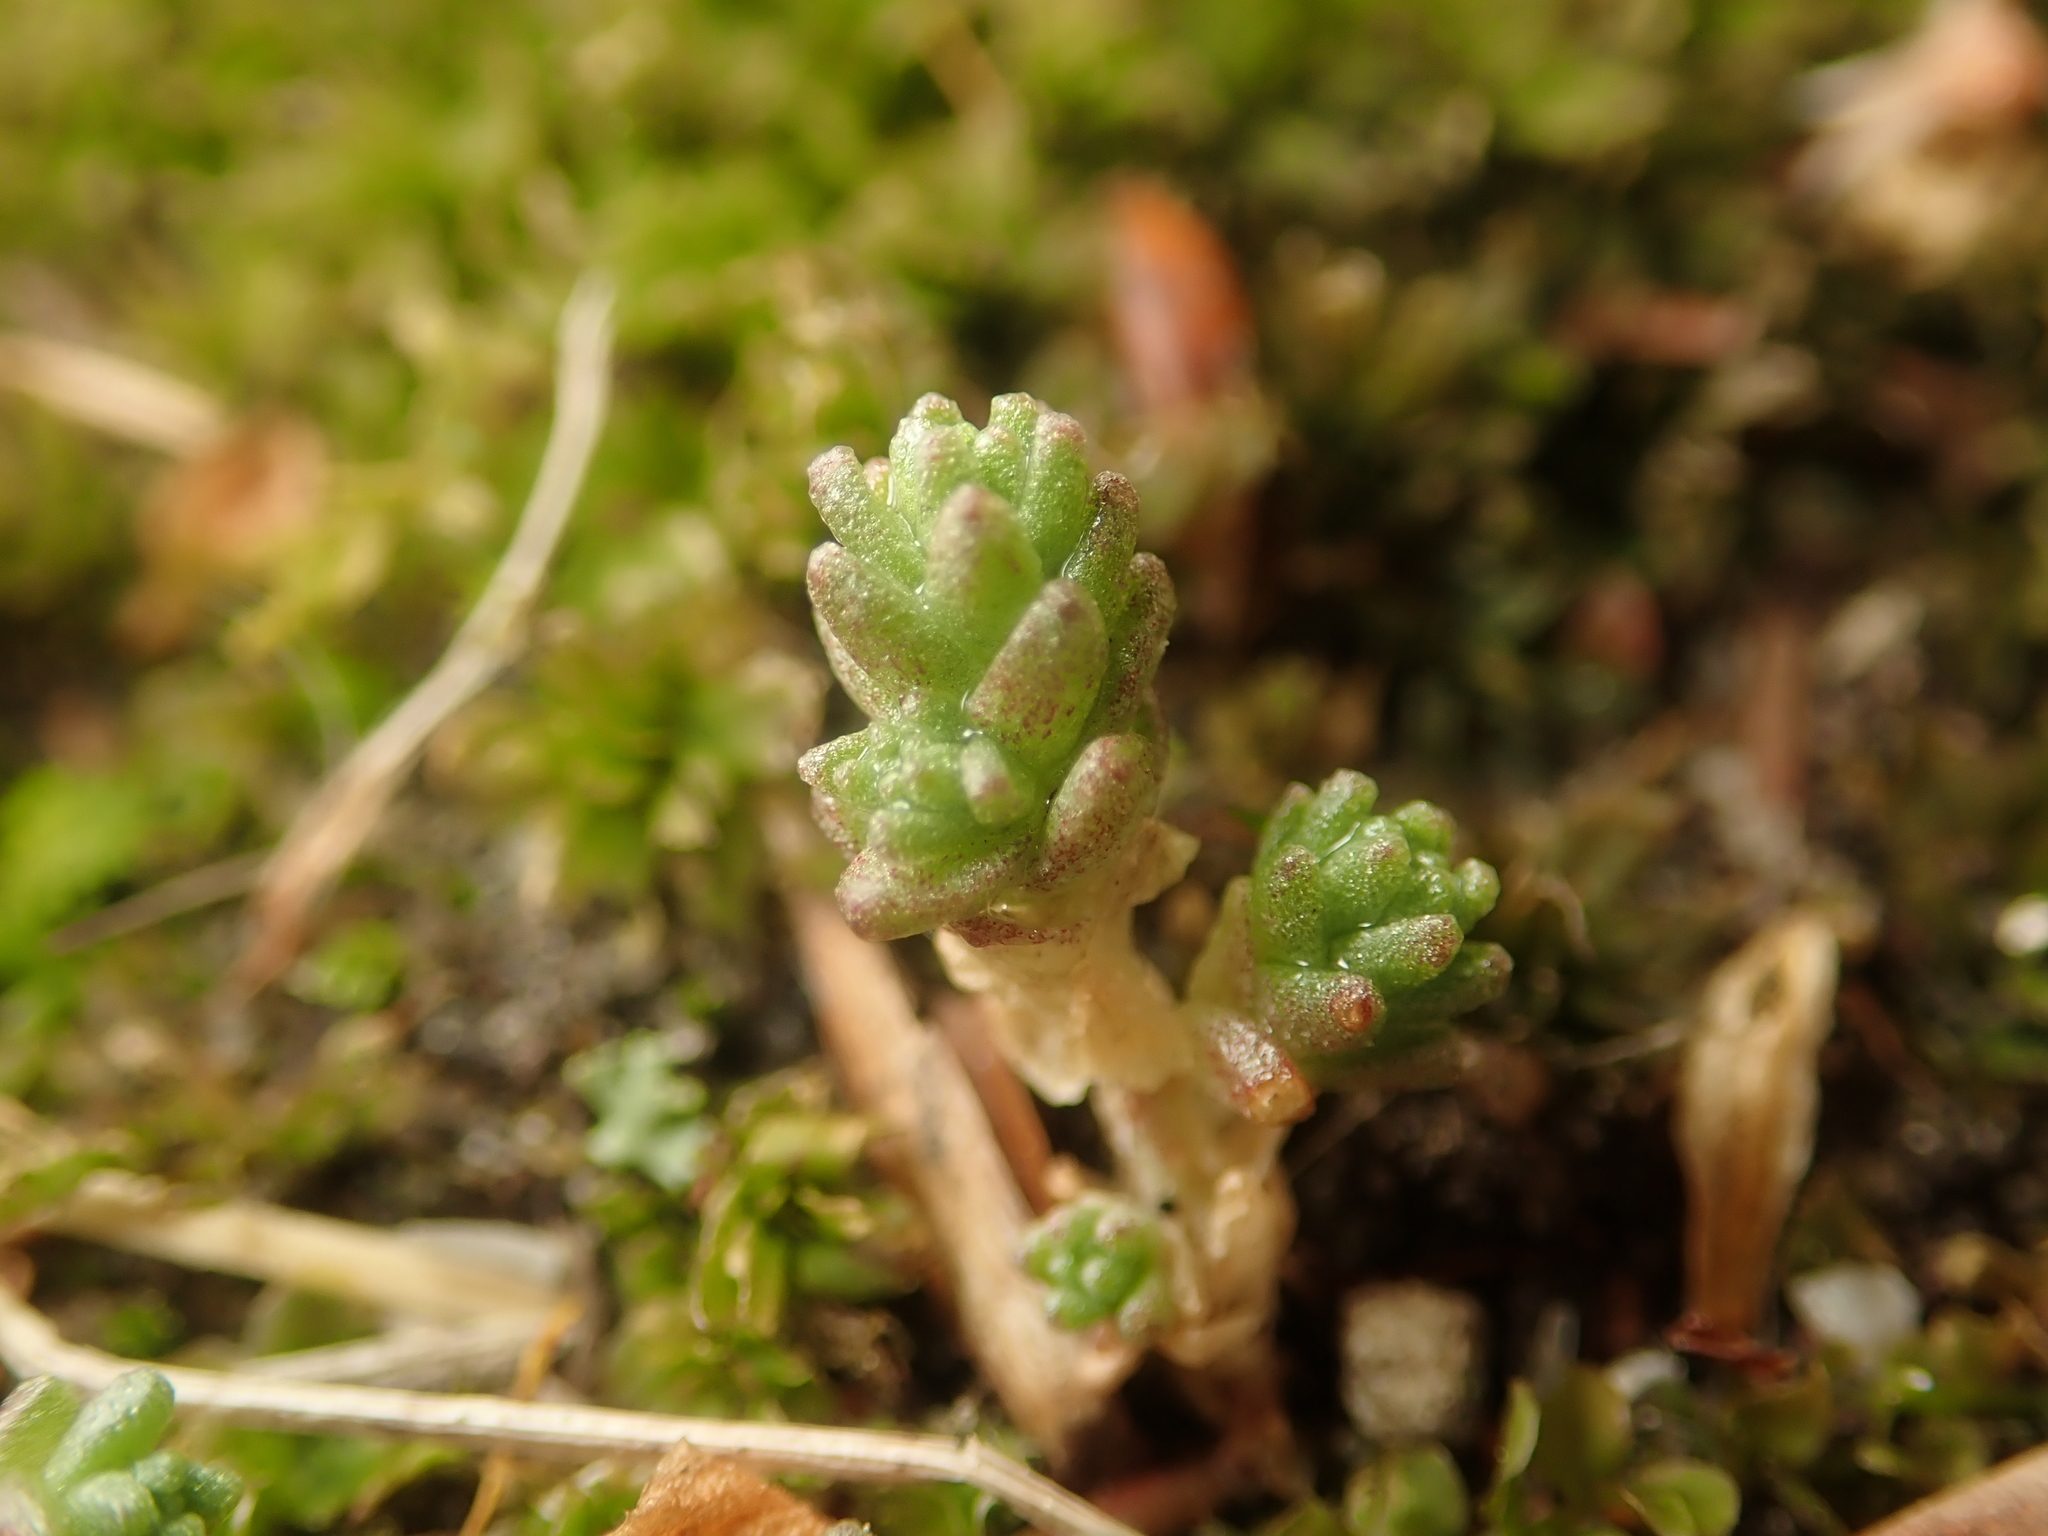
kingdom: Plantae
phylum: Tracheophyta
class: Magnoliopsida
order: Saxifragales
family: Crassulaceae
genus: Sedum
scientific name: Sedum acre
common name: Biting stonecrop
